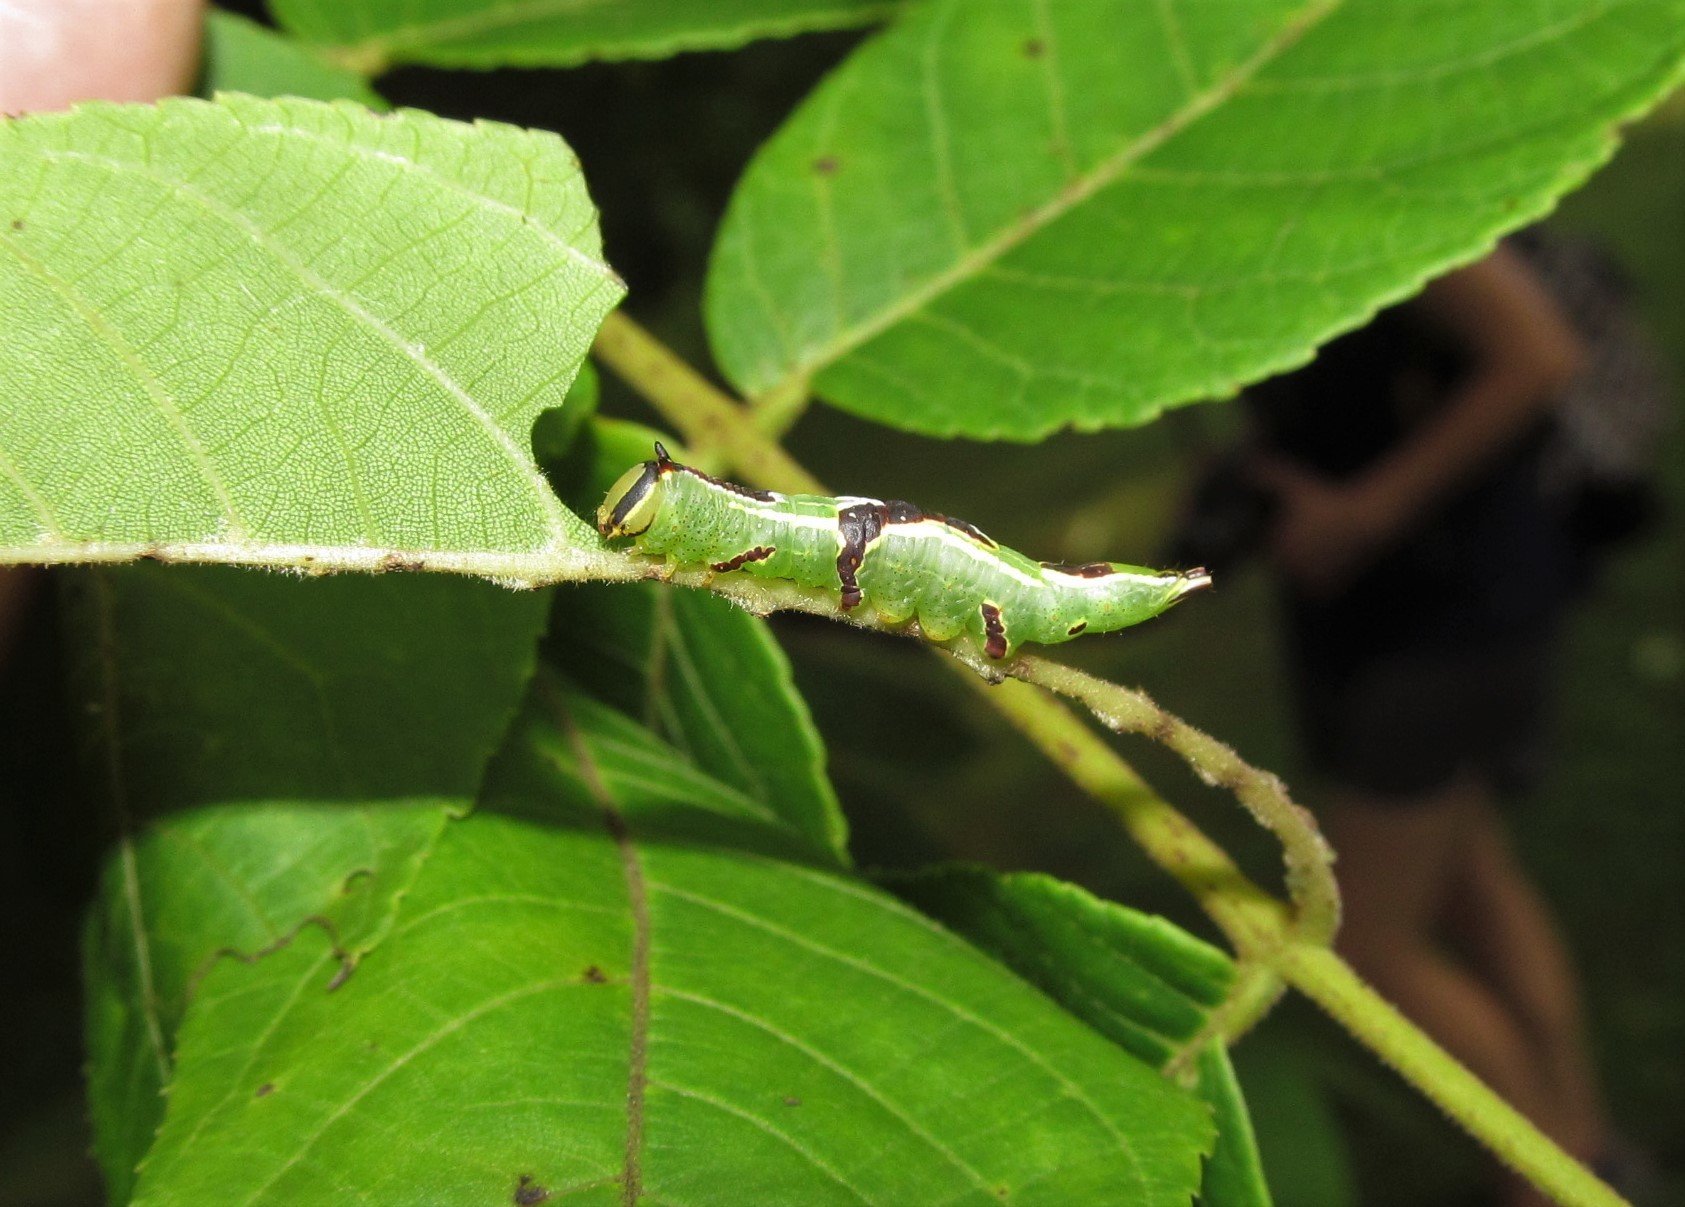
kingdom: Animalia
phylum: Arthropoda
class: Insecta
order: Lepidoptera
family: Notodontidae
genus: Disphragis
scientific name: Disphragis Cecrita guttivitta
